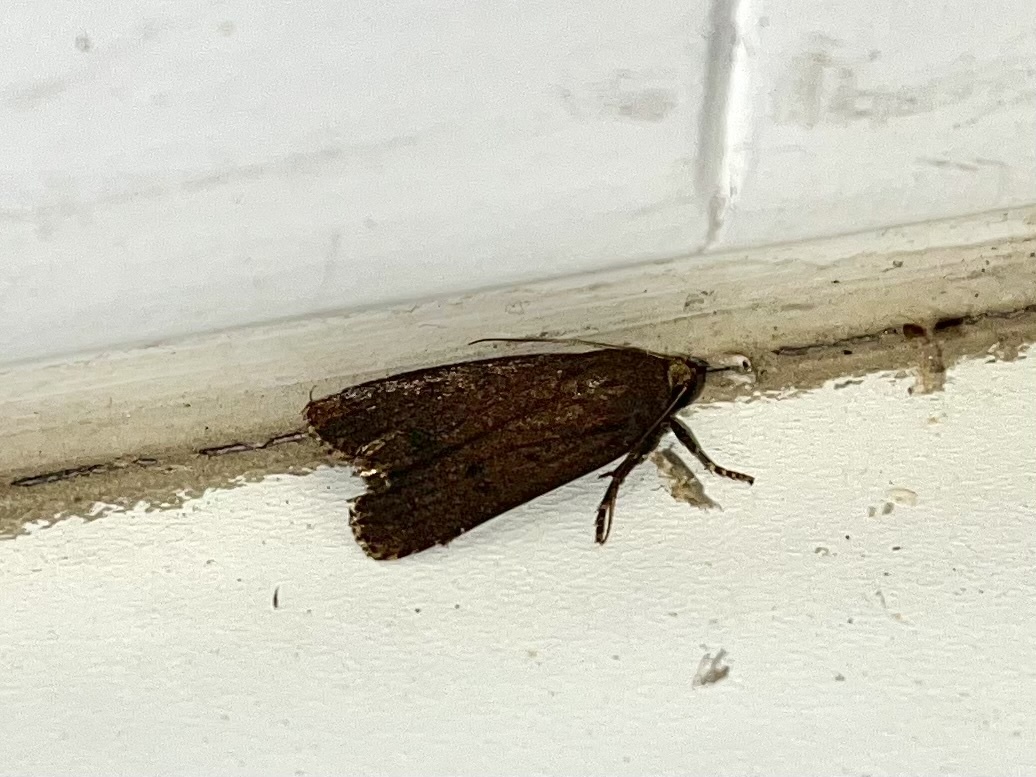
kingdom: Animalia
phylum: Arthropoda
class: Insecta
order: Lepidoptera
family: Noctuidae
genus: Amphipyra
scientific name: Amphipyra tragopoginis
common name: Mouse moth
